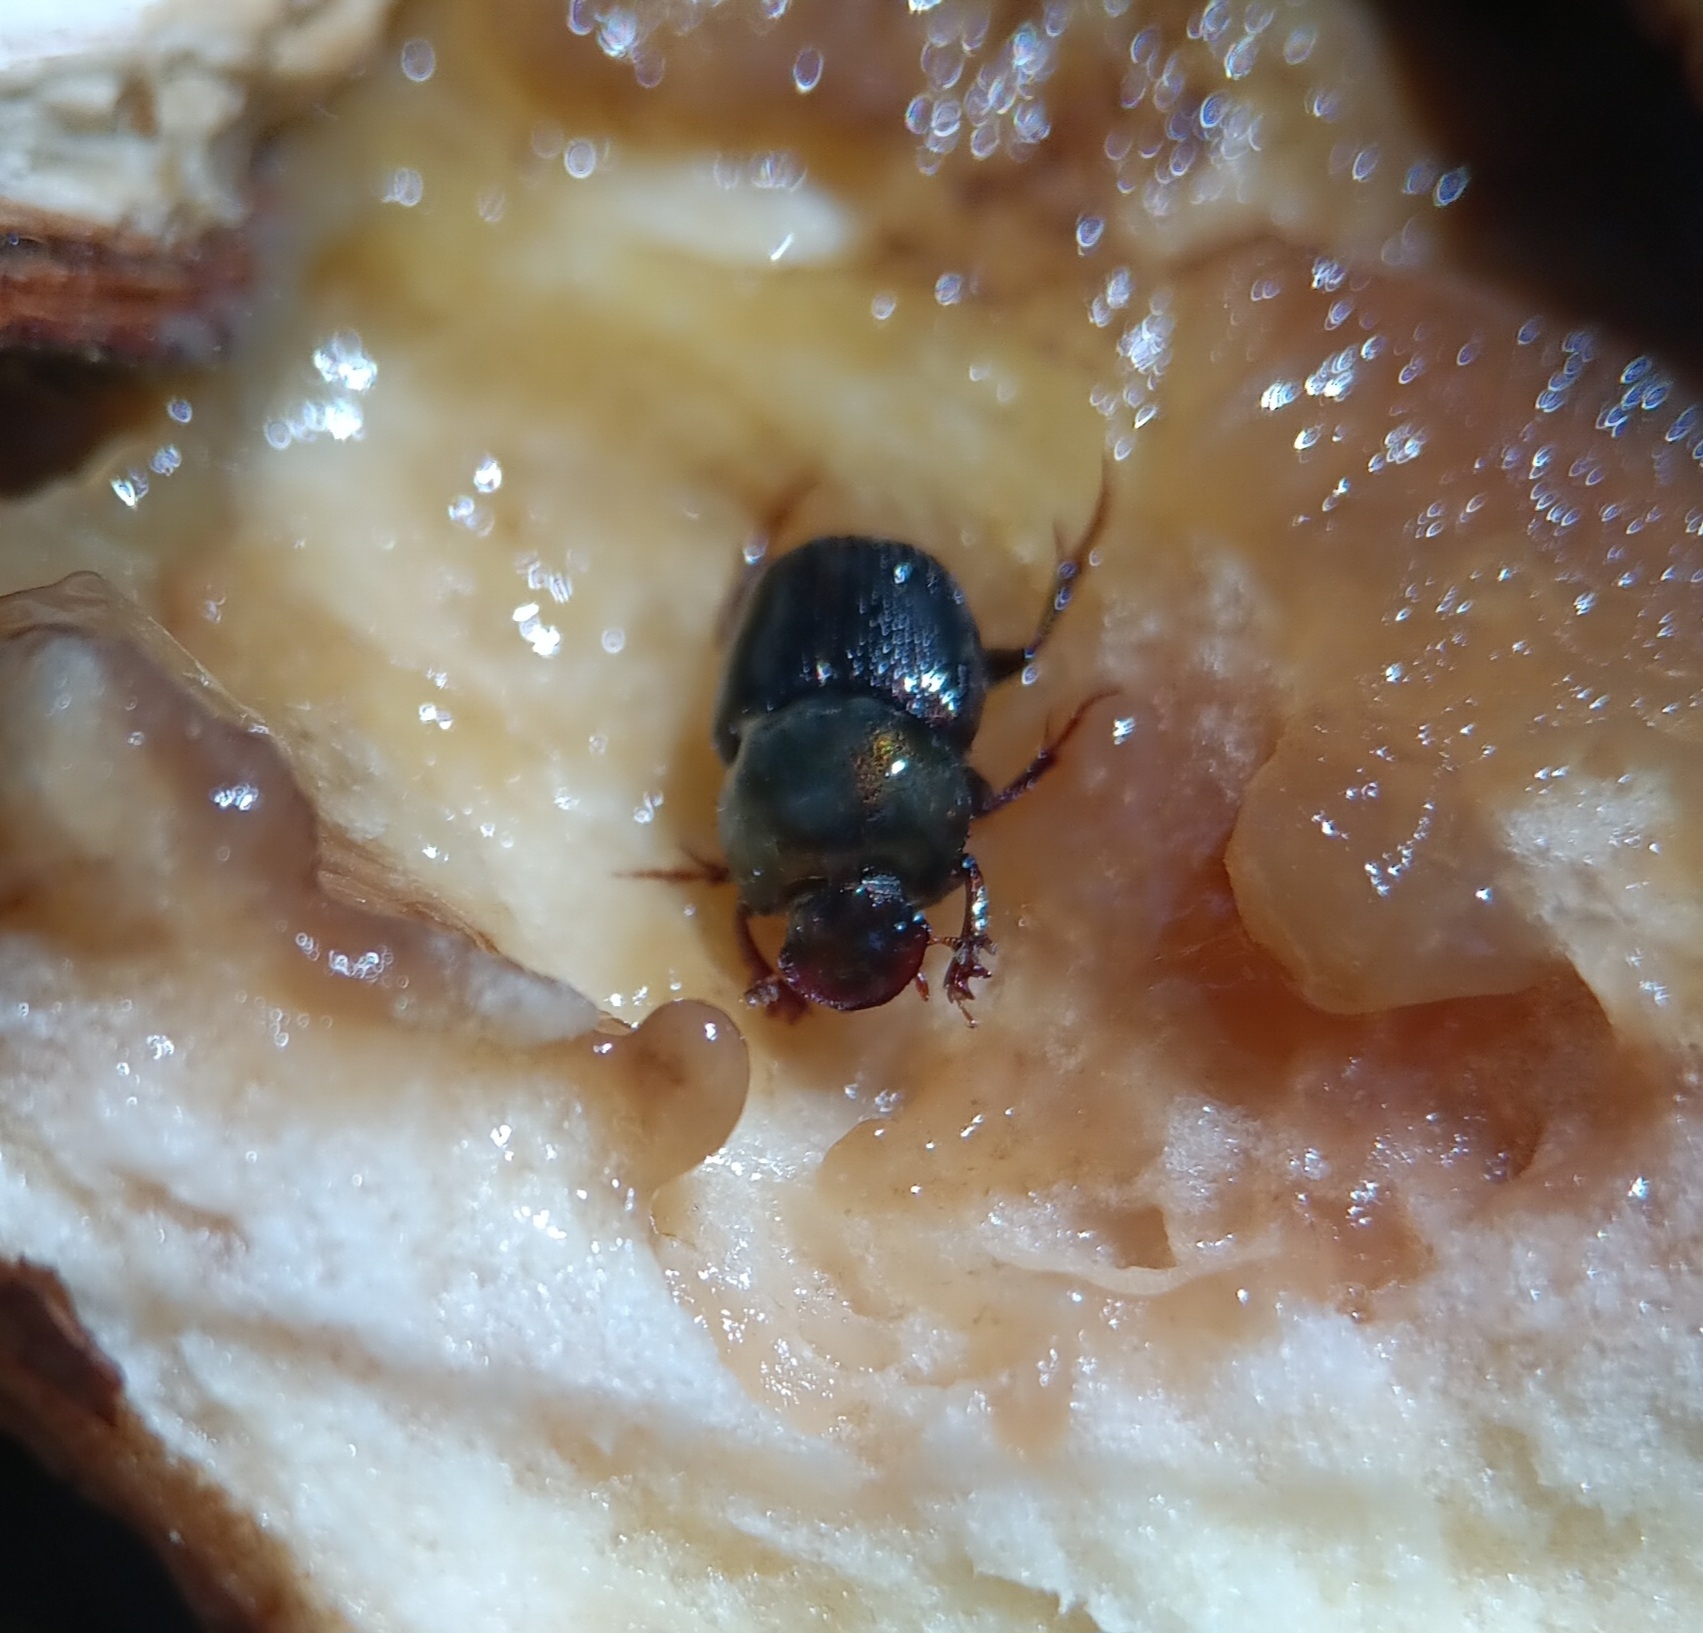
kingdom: Animalia
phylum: Arthropoda
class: Insecta
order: Coleoptera
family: Scarabaeidae
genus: Onthophagus
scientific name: Onthophagus orpheus
